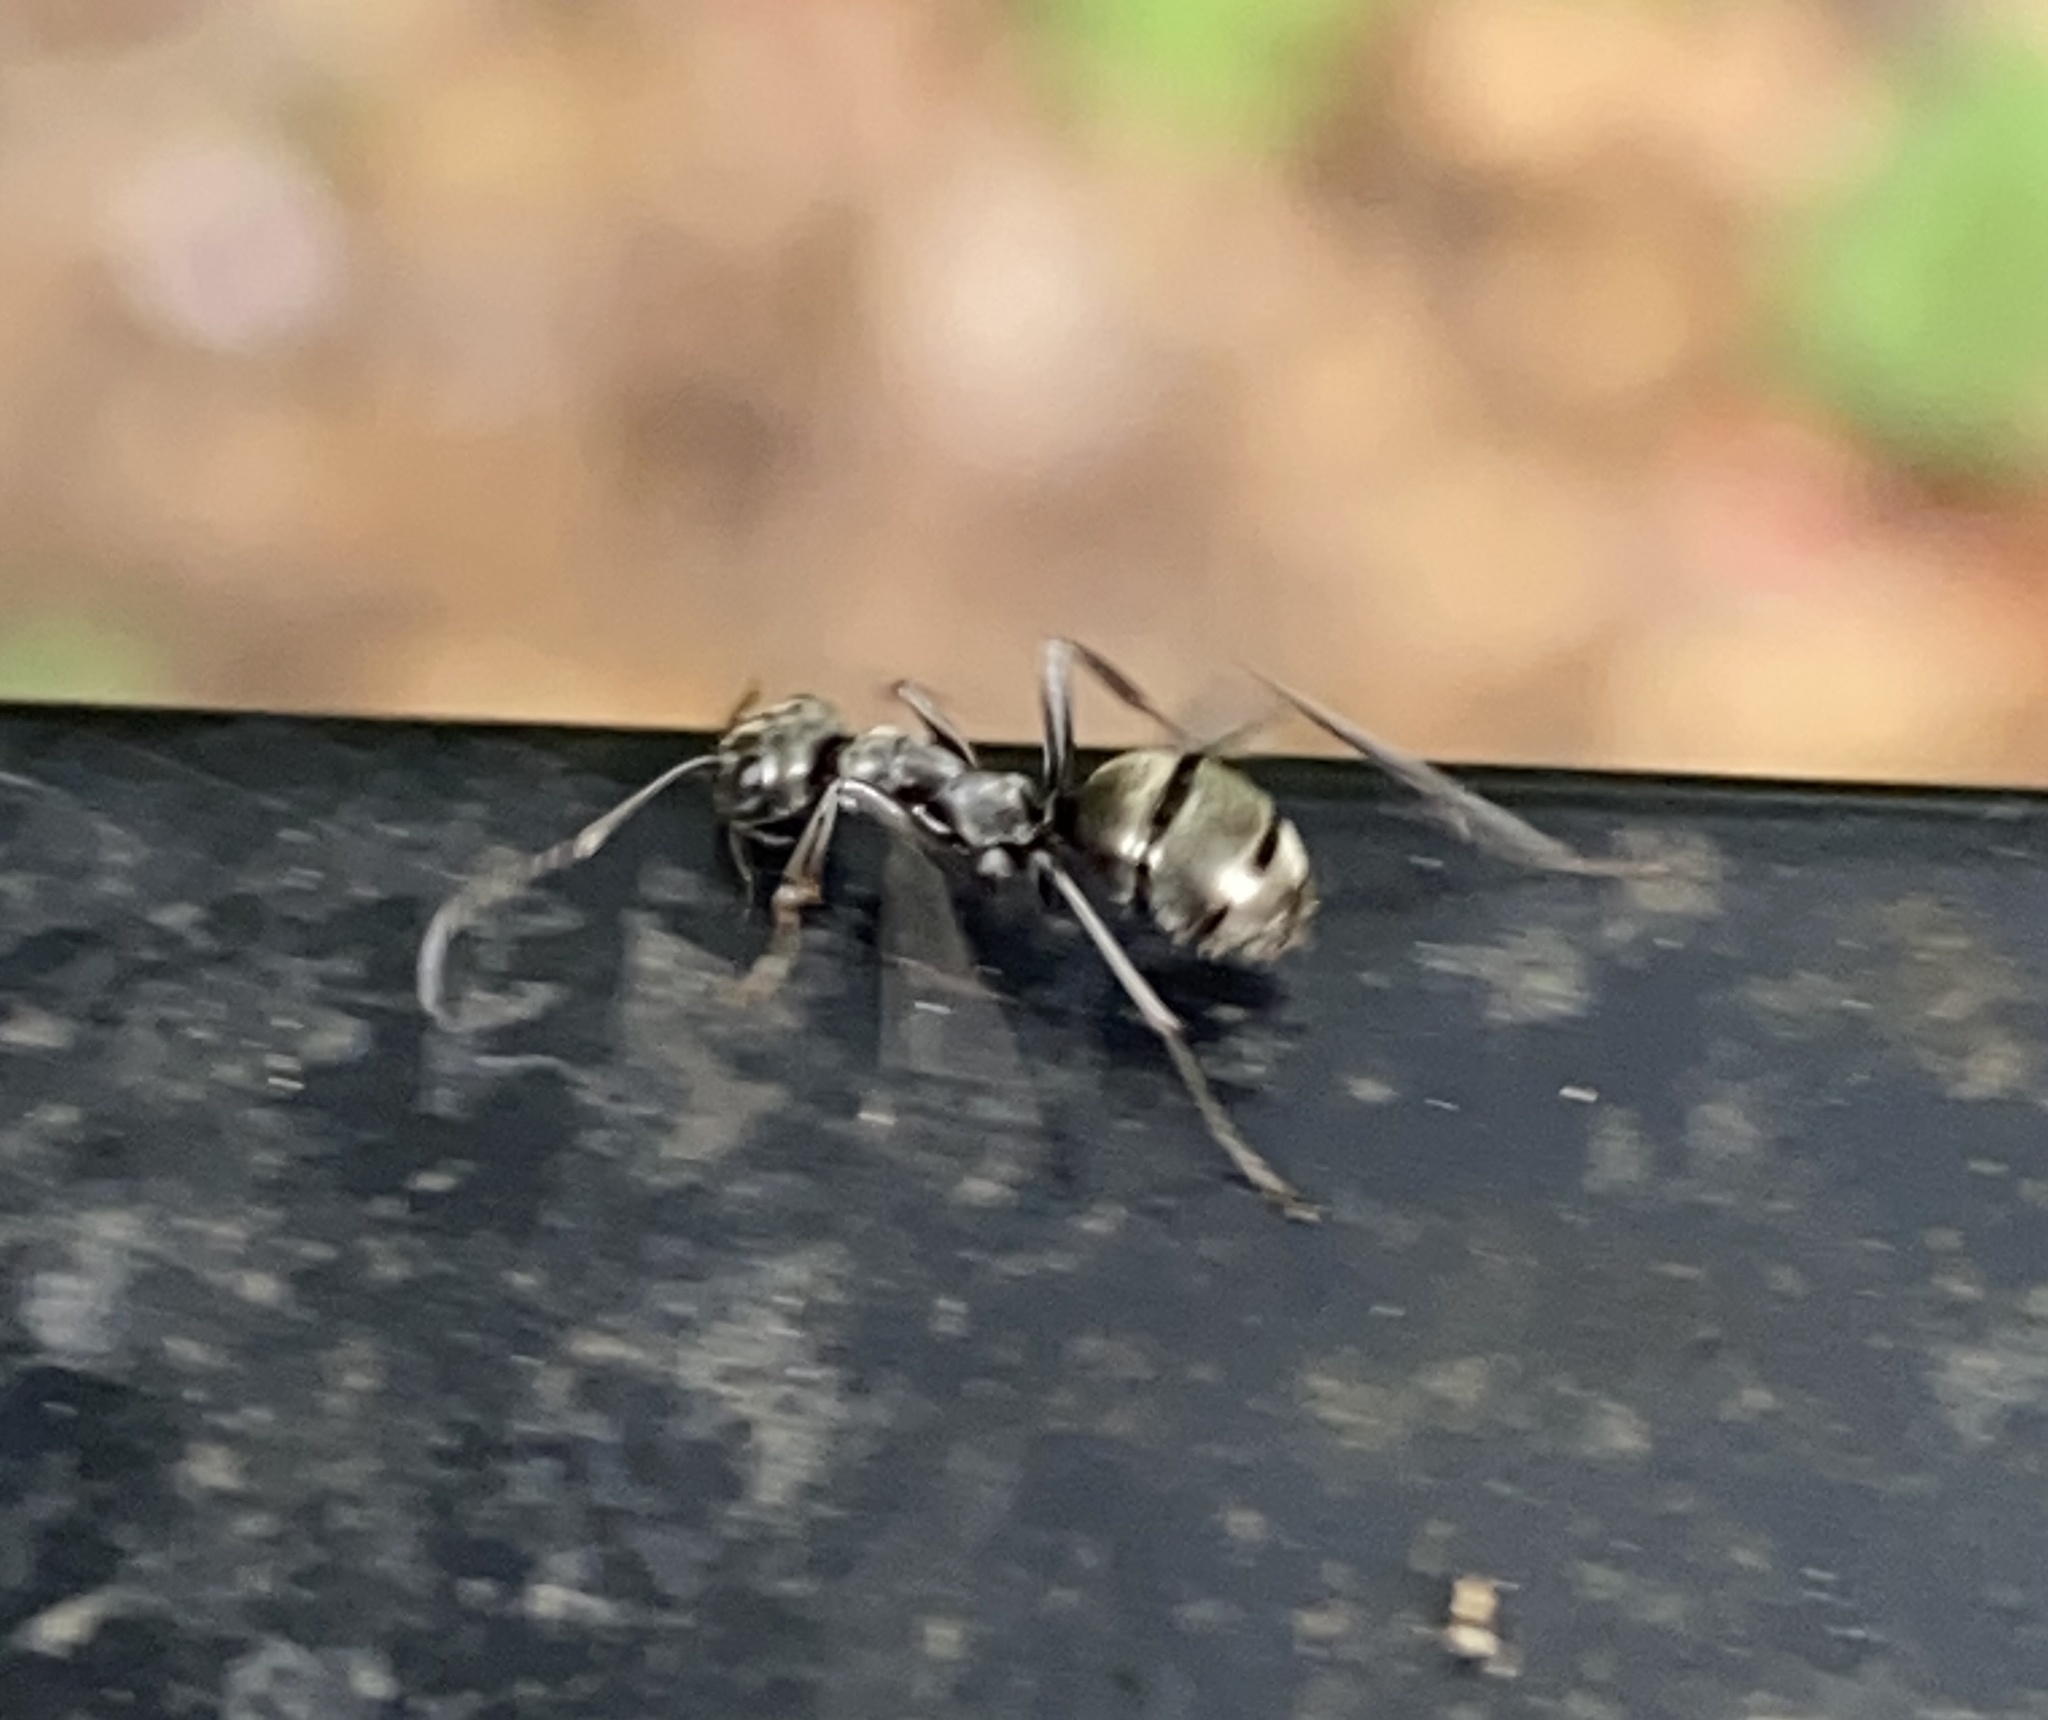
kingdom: Animalia
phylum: Arthropoda
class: Insecta
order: Hymenoptera
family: Formicidae
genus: Formica
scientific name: Formica subsericea
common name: Silky field ant
